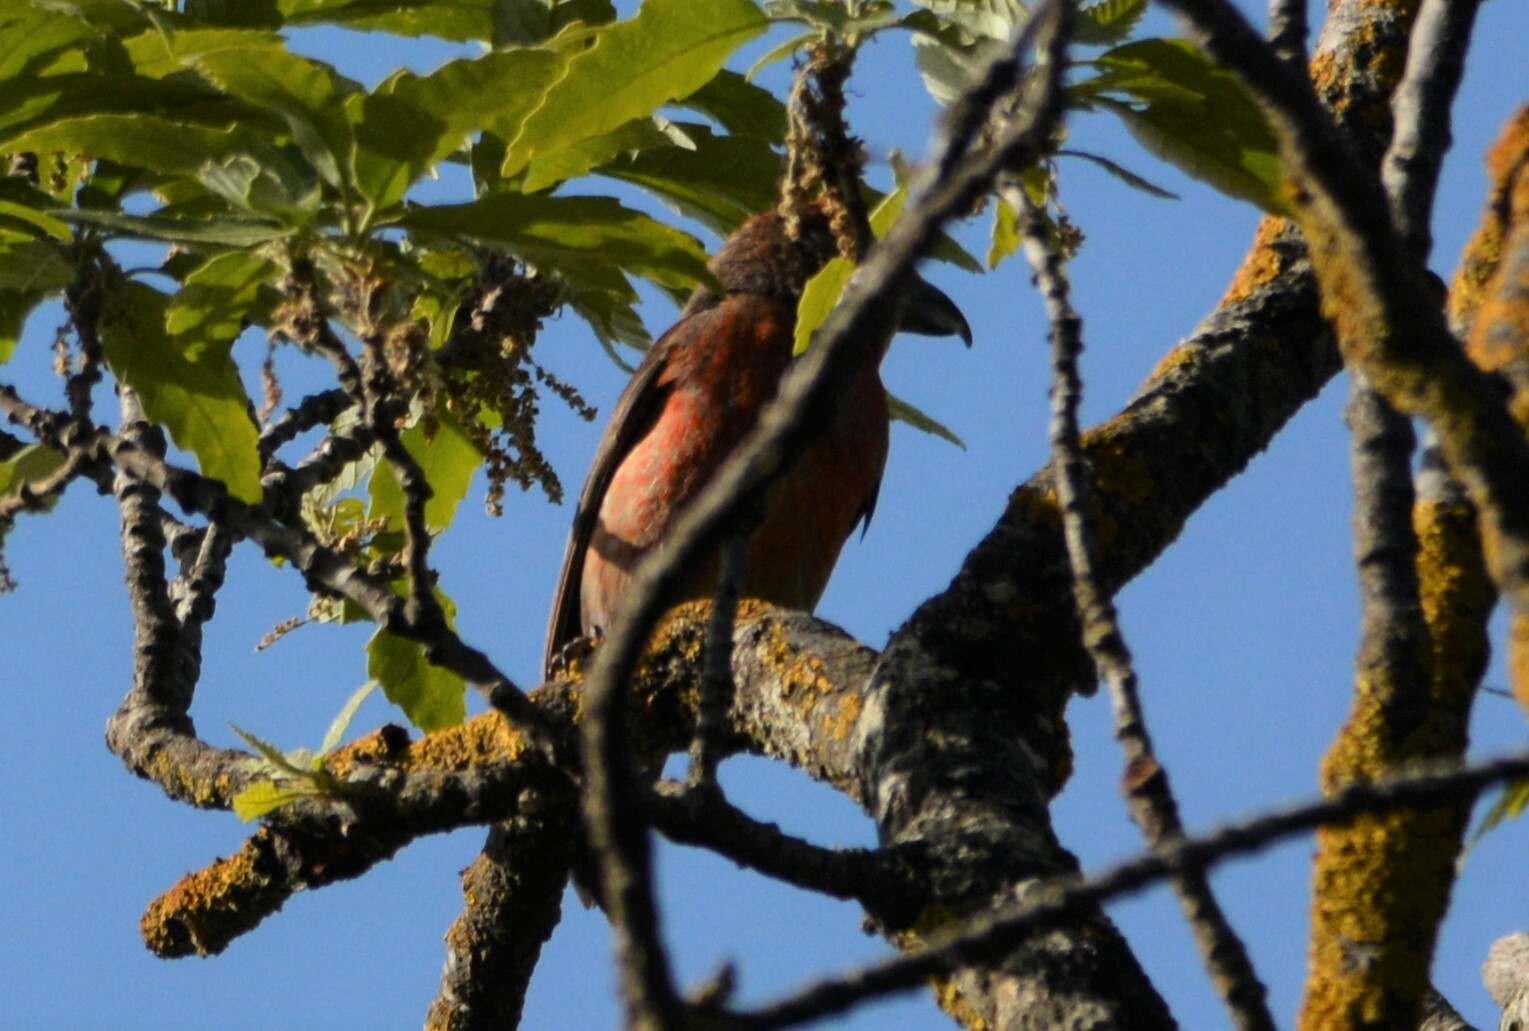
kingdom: Animalia
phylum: Chordata
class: Aves
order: Passeriformes
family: Fringillidae
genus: Loxia
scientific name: Loxia curvirostra
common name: Red crossbill
